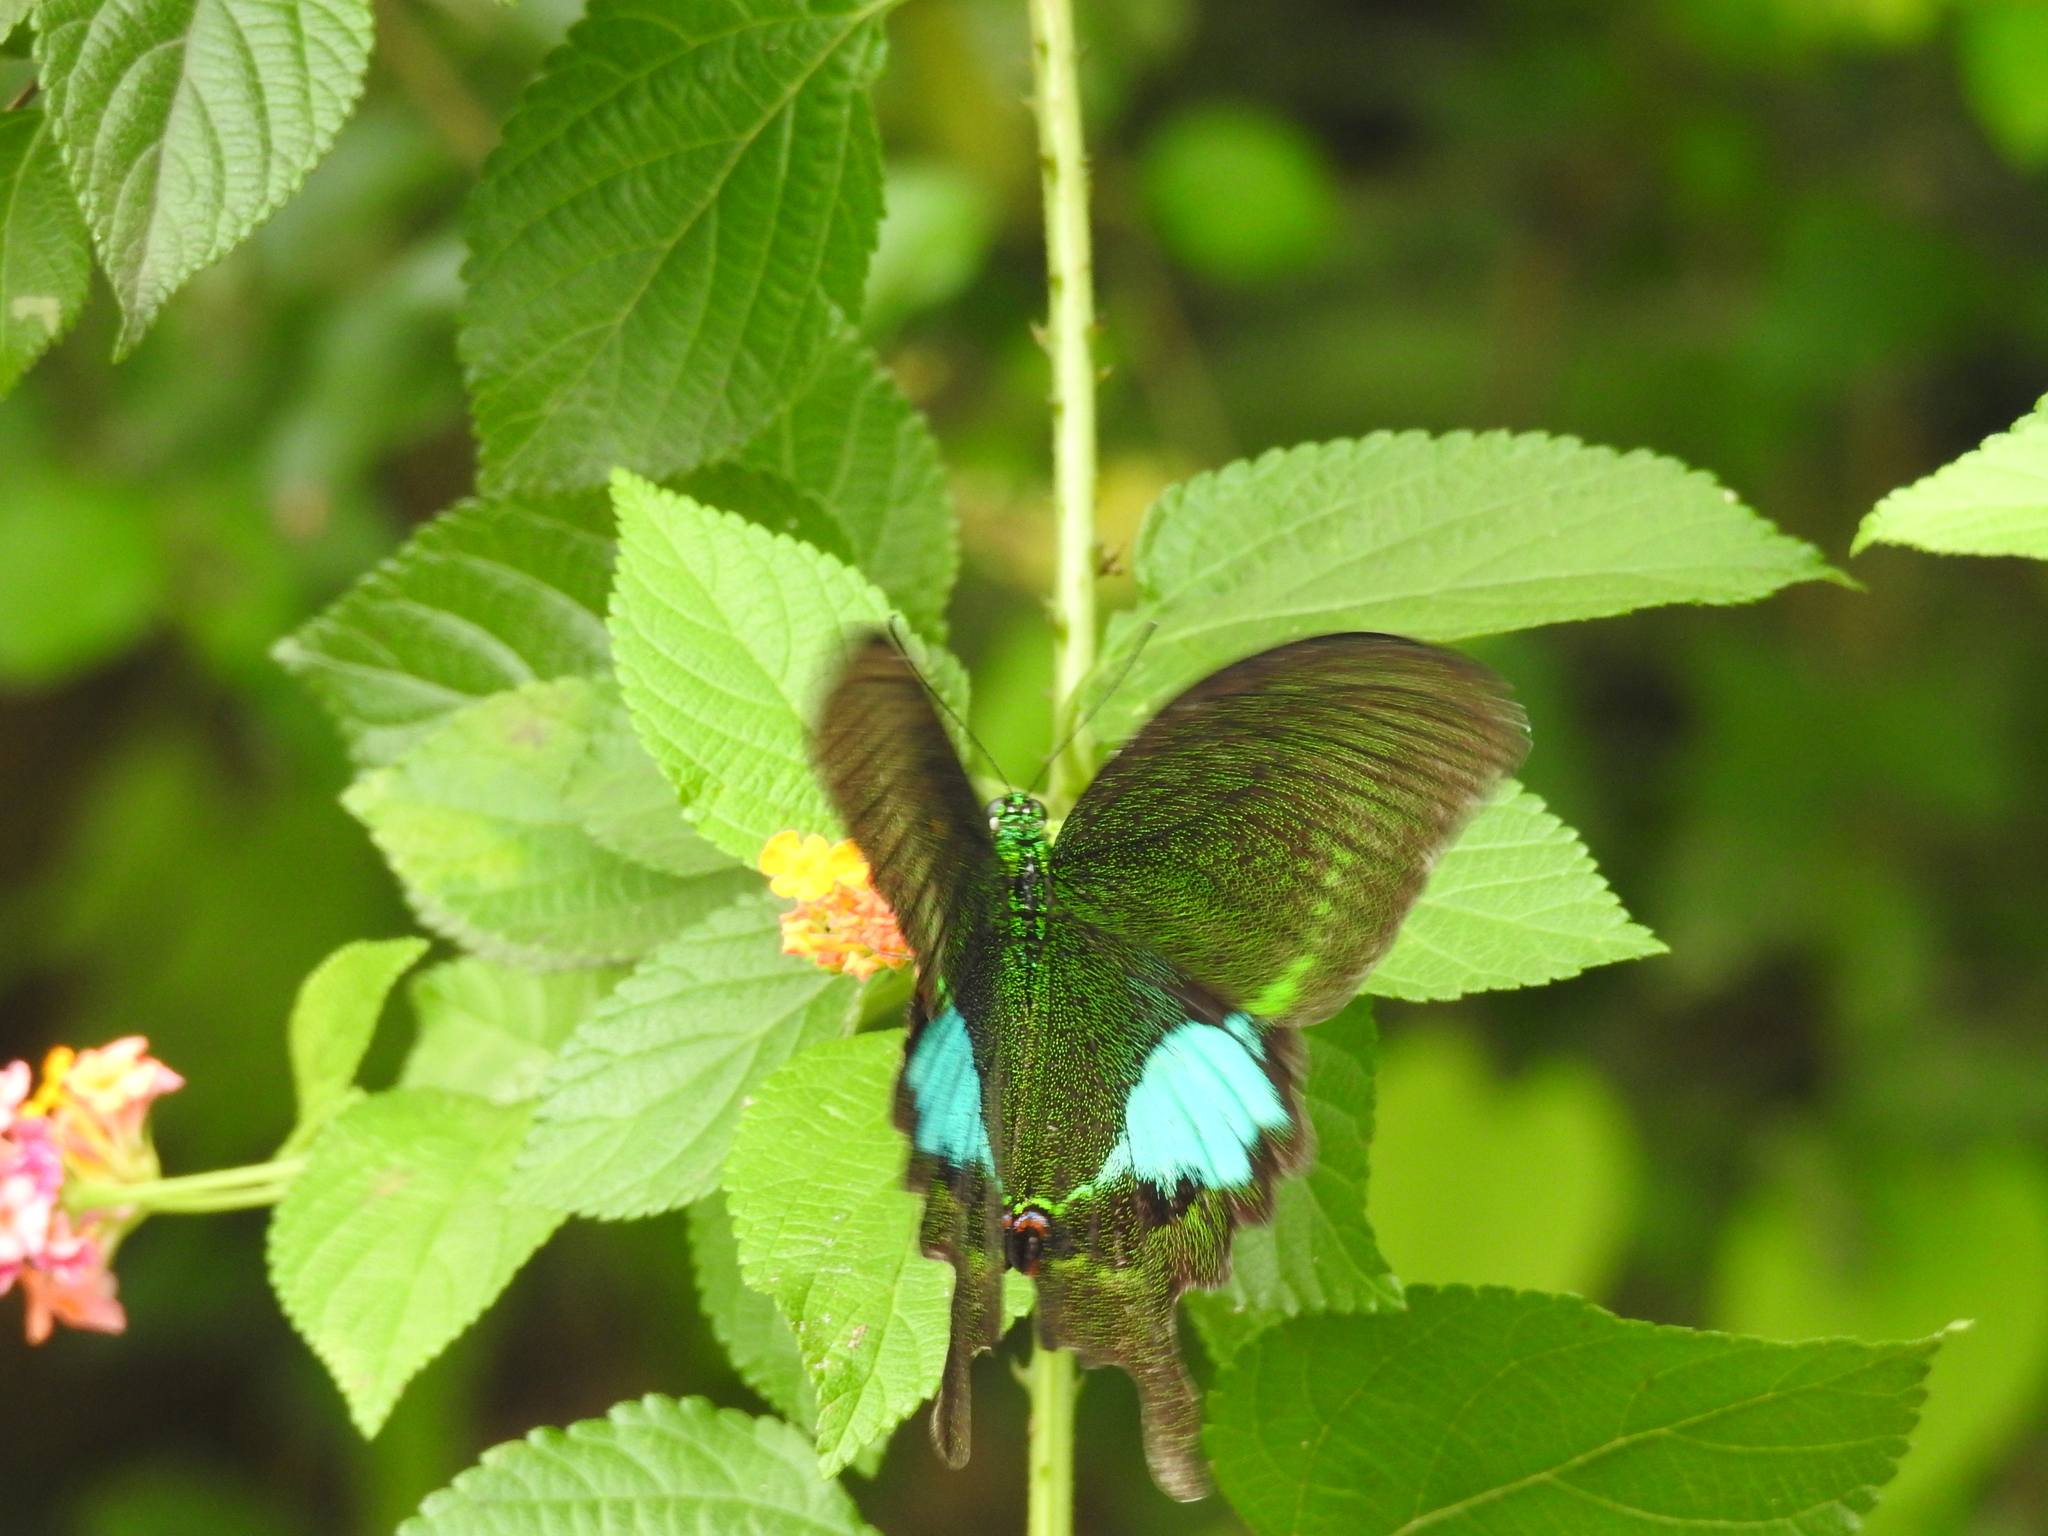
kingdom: Animalia
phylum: Arthropoda
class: Insecta
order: Lepidoptera
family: Papilionidae
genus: Papilio
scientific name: Papilio paris
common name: Paris peacock
